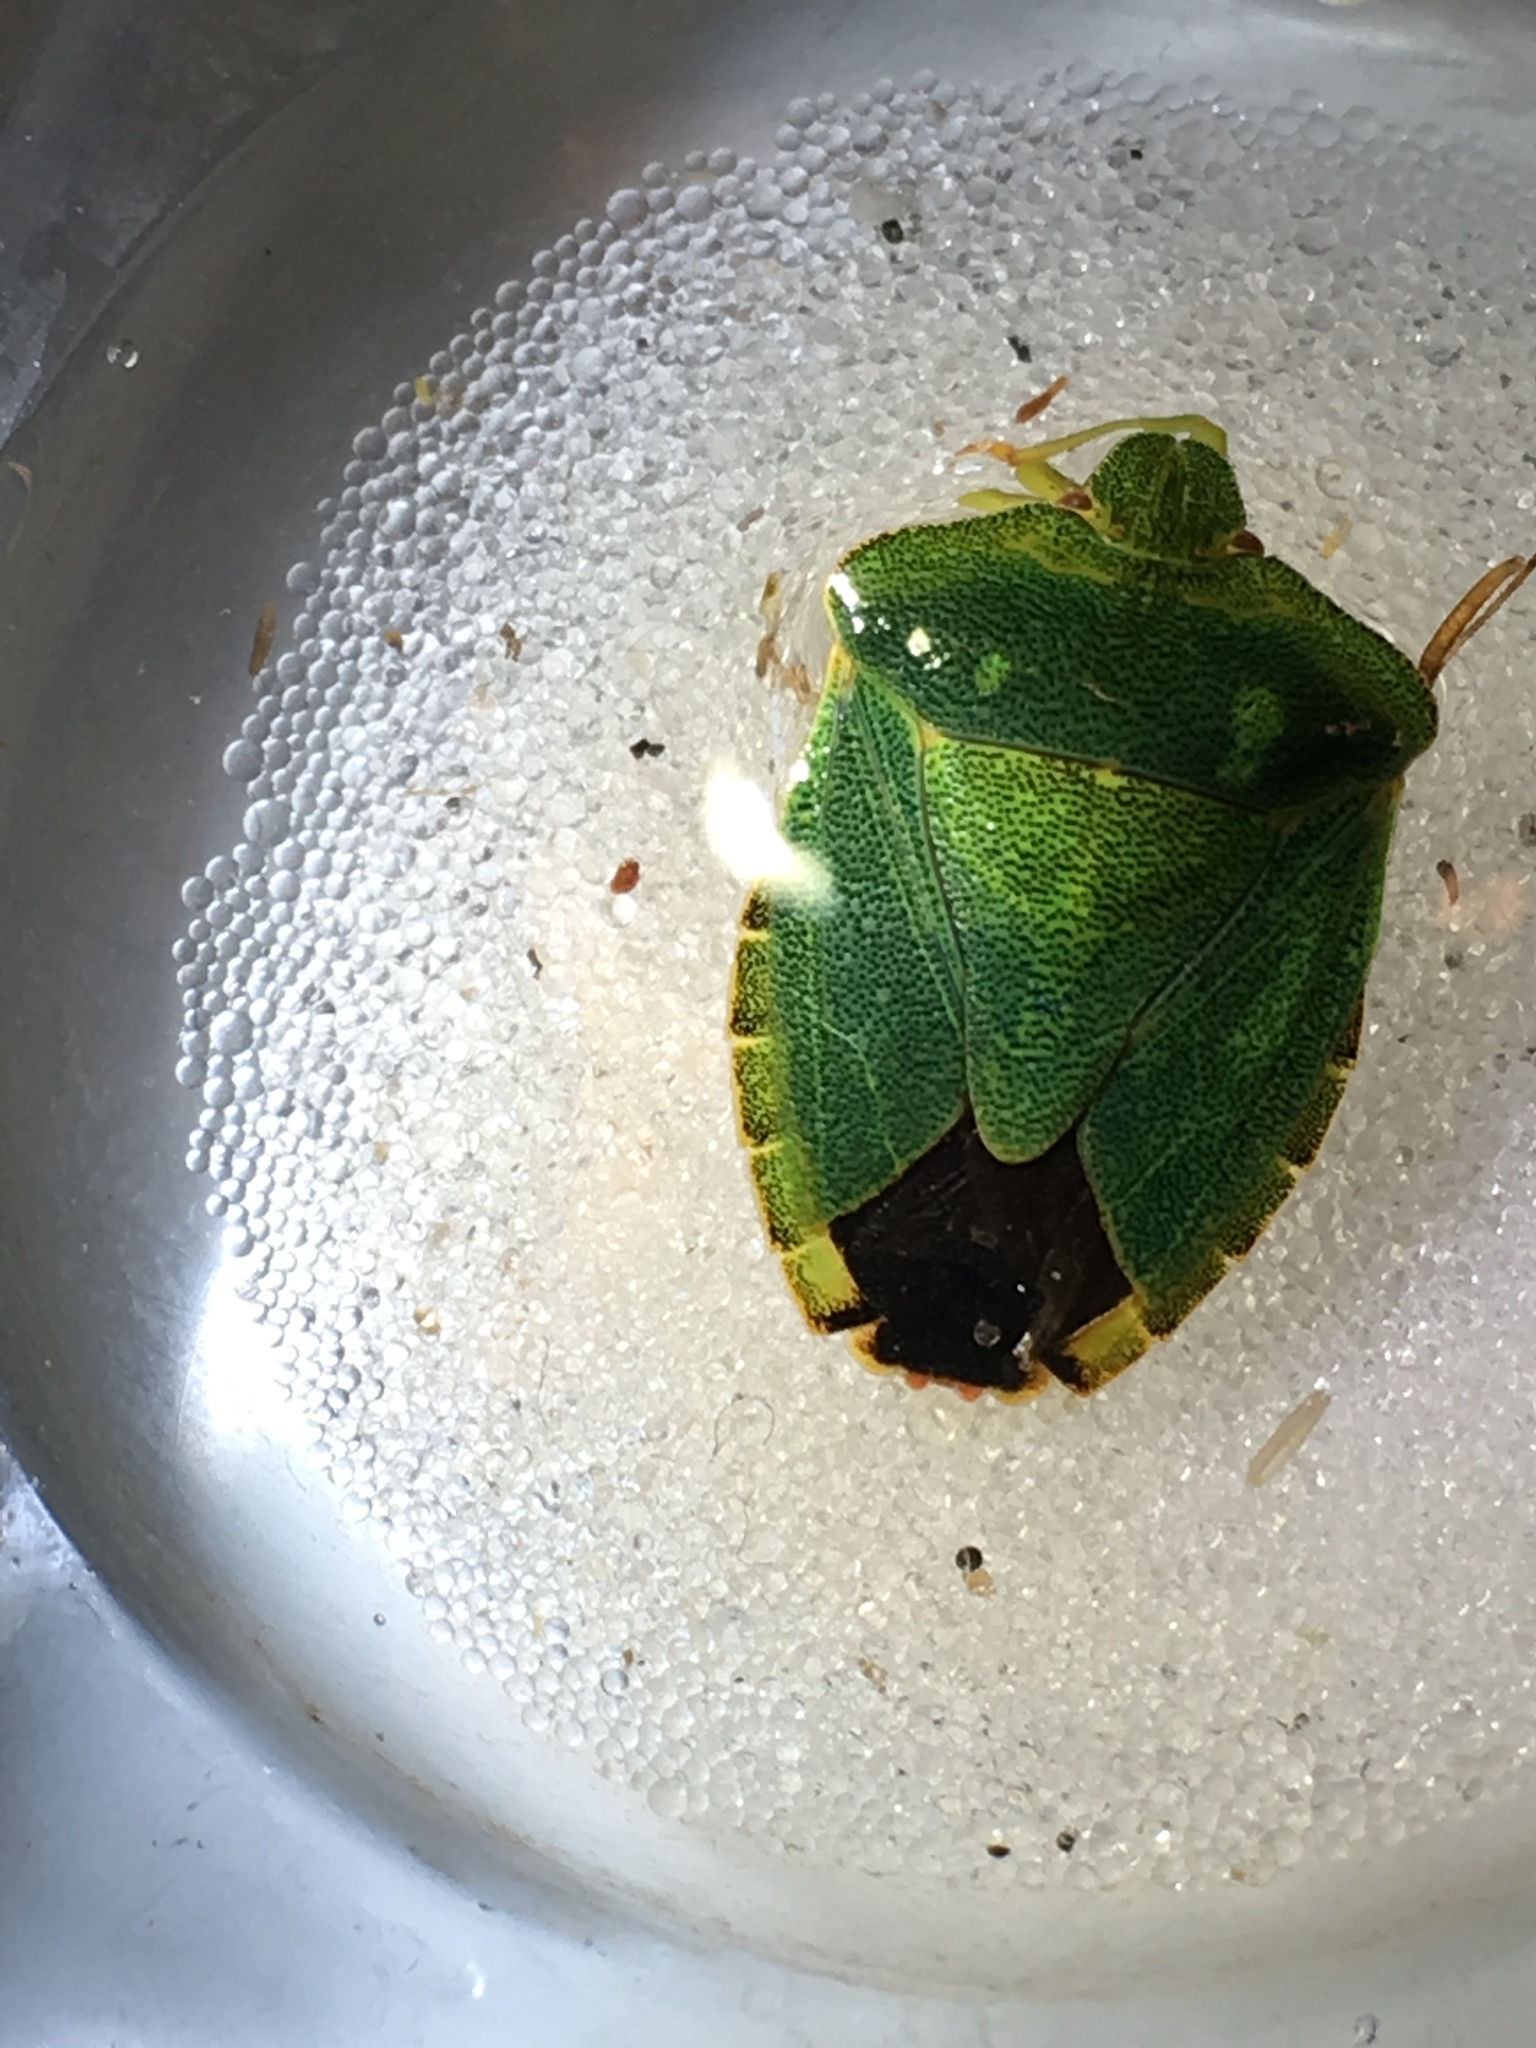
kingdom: Animalia
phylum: Arthropoda
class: Insecta
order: Hemiptera
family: Pentatomidae
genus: Palomena
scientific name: Palomena prasina
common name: Green shieldbug
